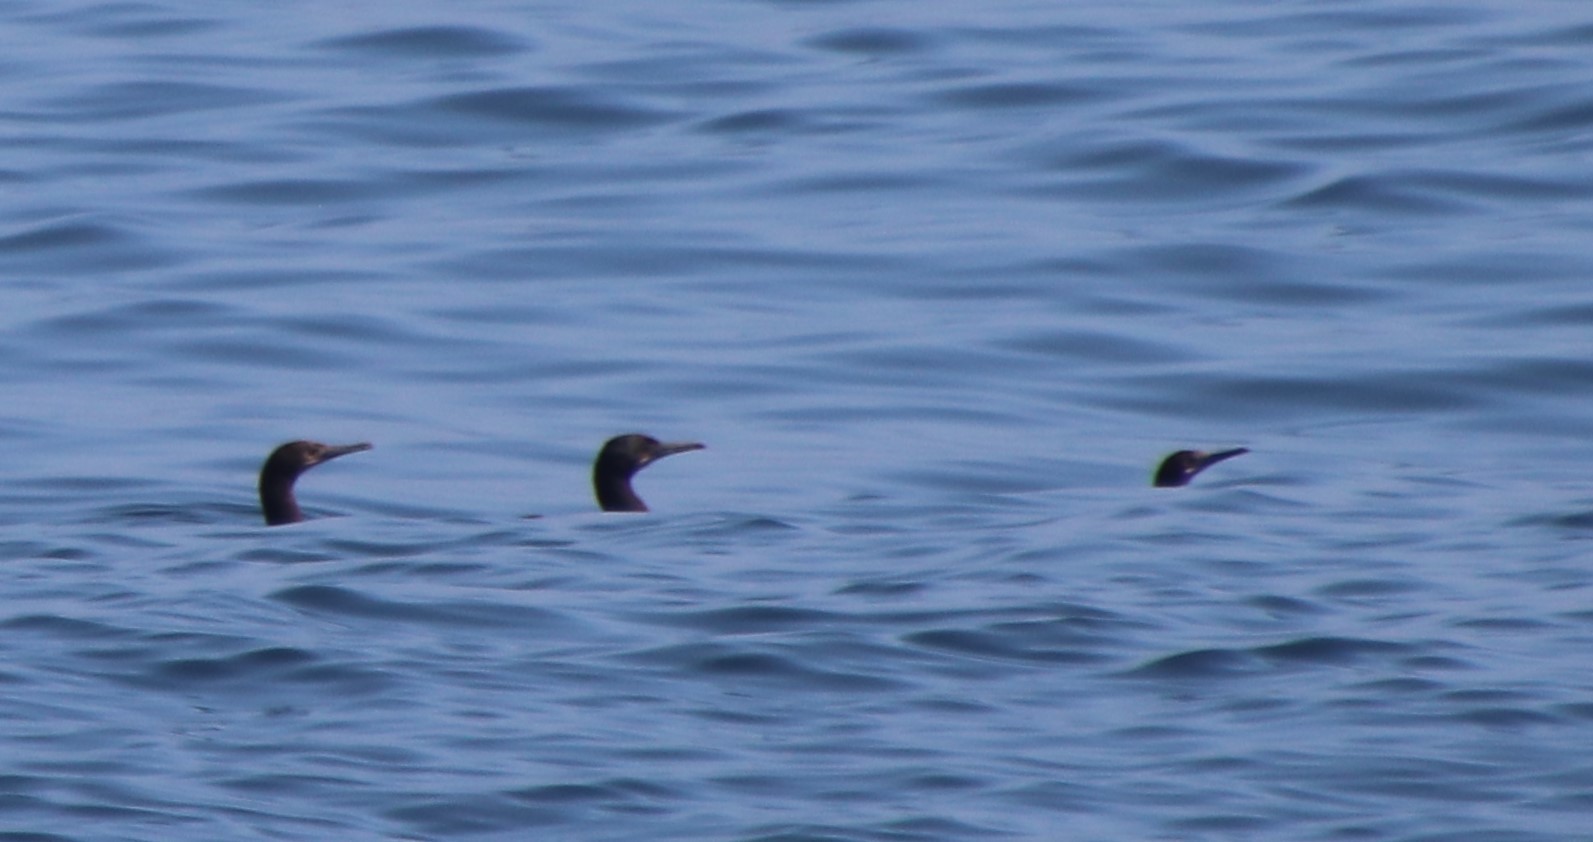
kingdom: Animalia
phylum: Chordata
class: Aves
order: Suliformes
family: Phalacrocoracidae
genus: Urile
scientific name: Urile penicillatus
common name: Brandt's cormorant
